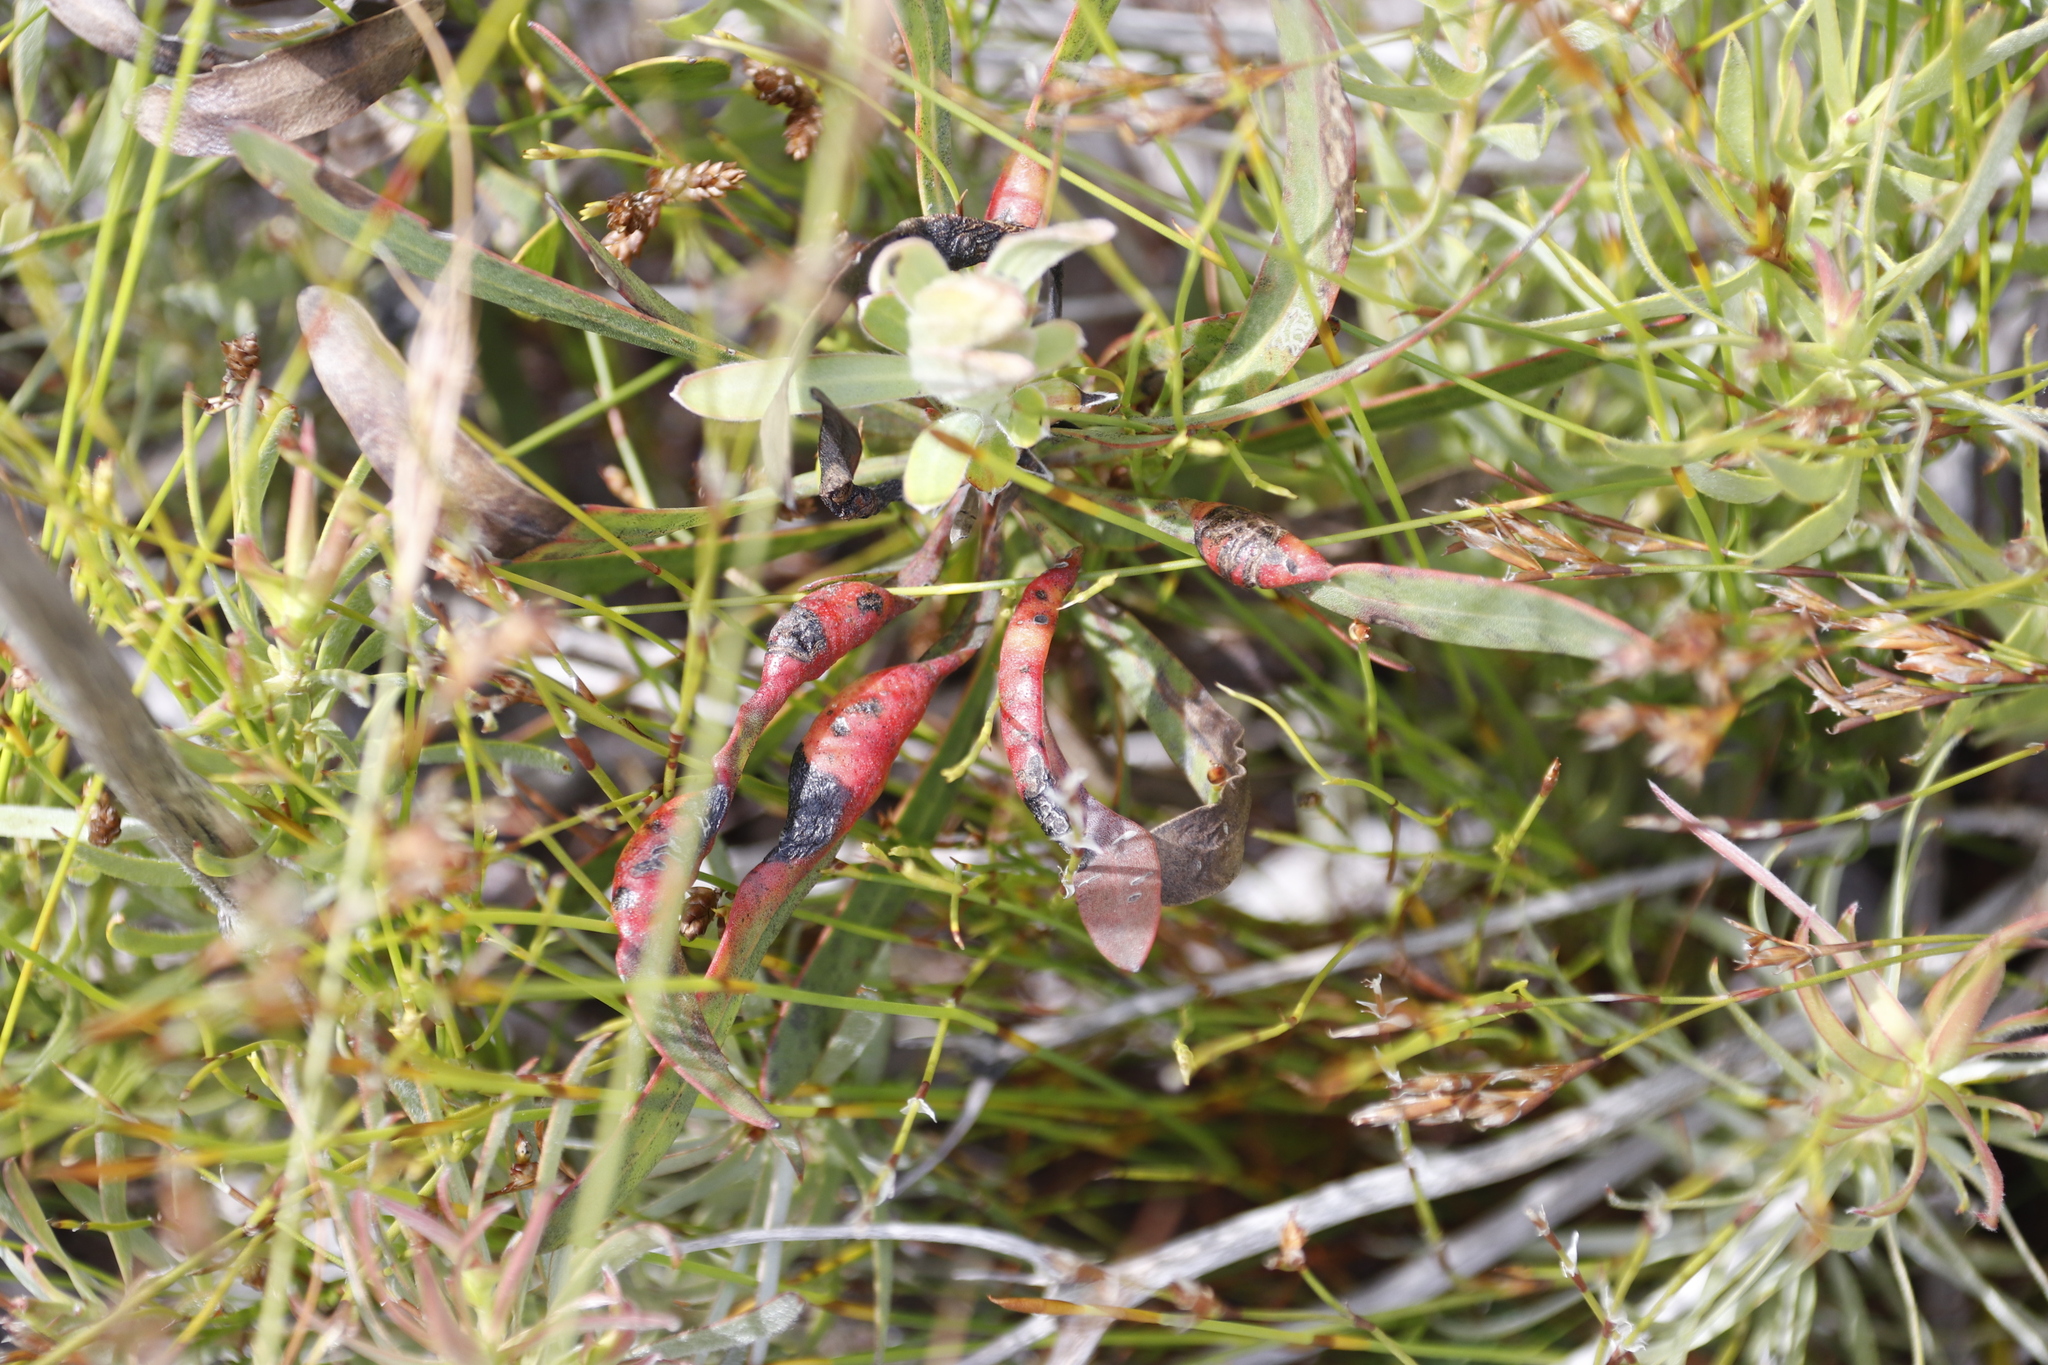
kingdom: Plantae
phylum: Tracheophyta
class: Magnoliopsida
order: Proteales
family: Proteaceae
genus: Protea
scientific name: Protea longifolia
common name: Long-leaf sugarbush
